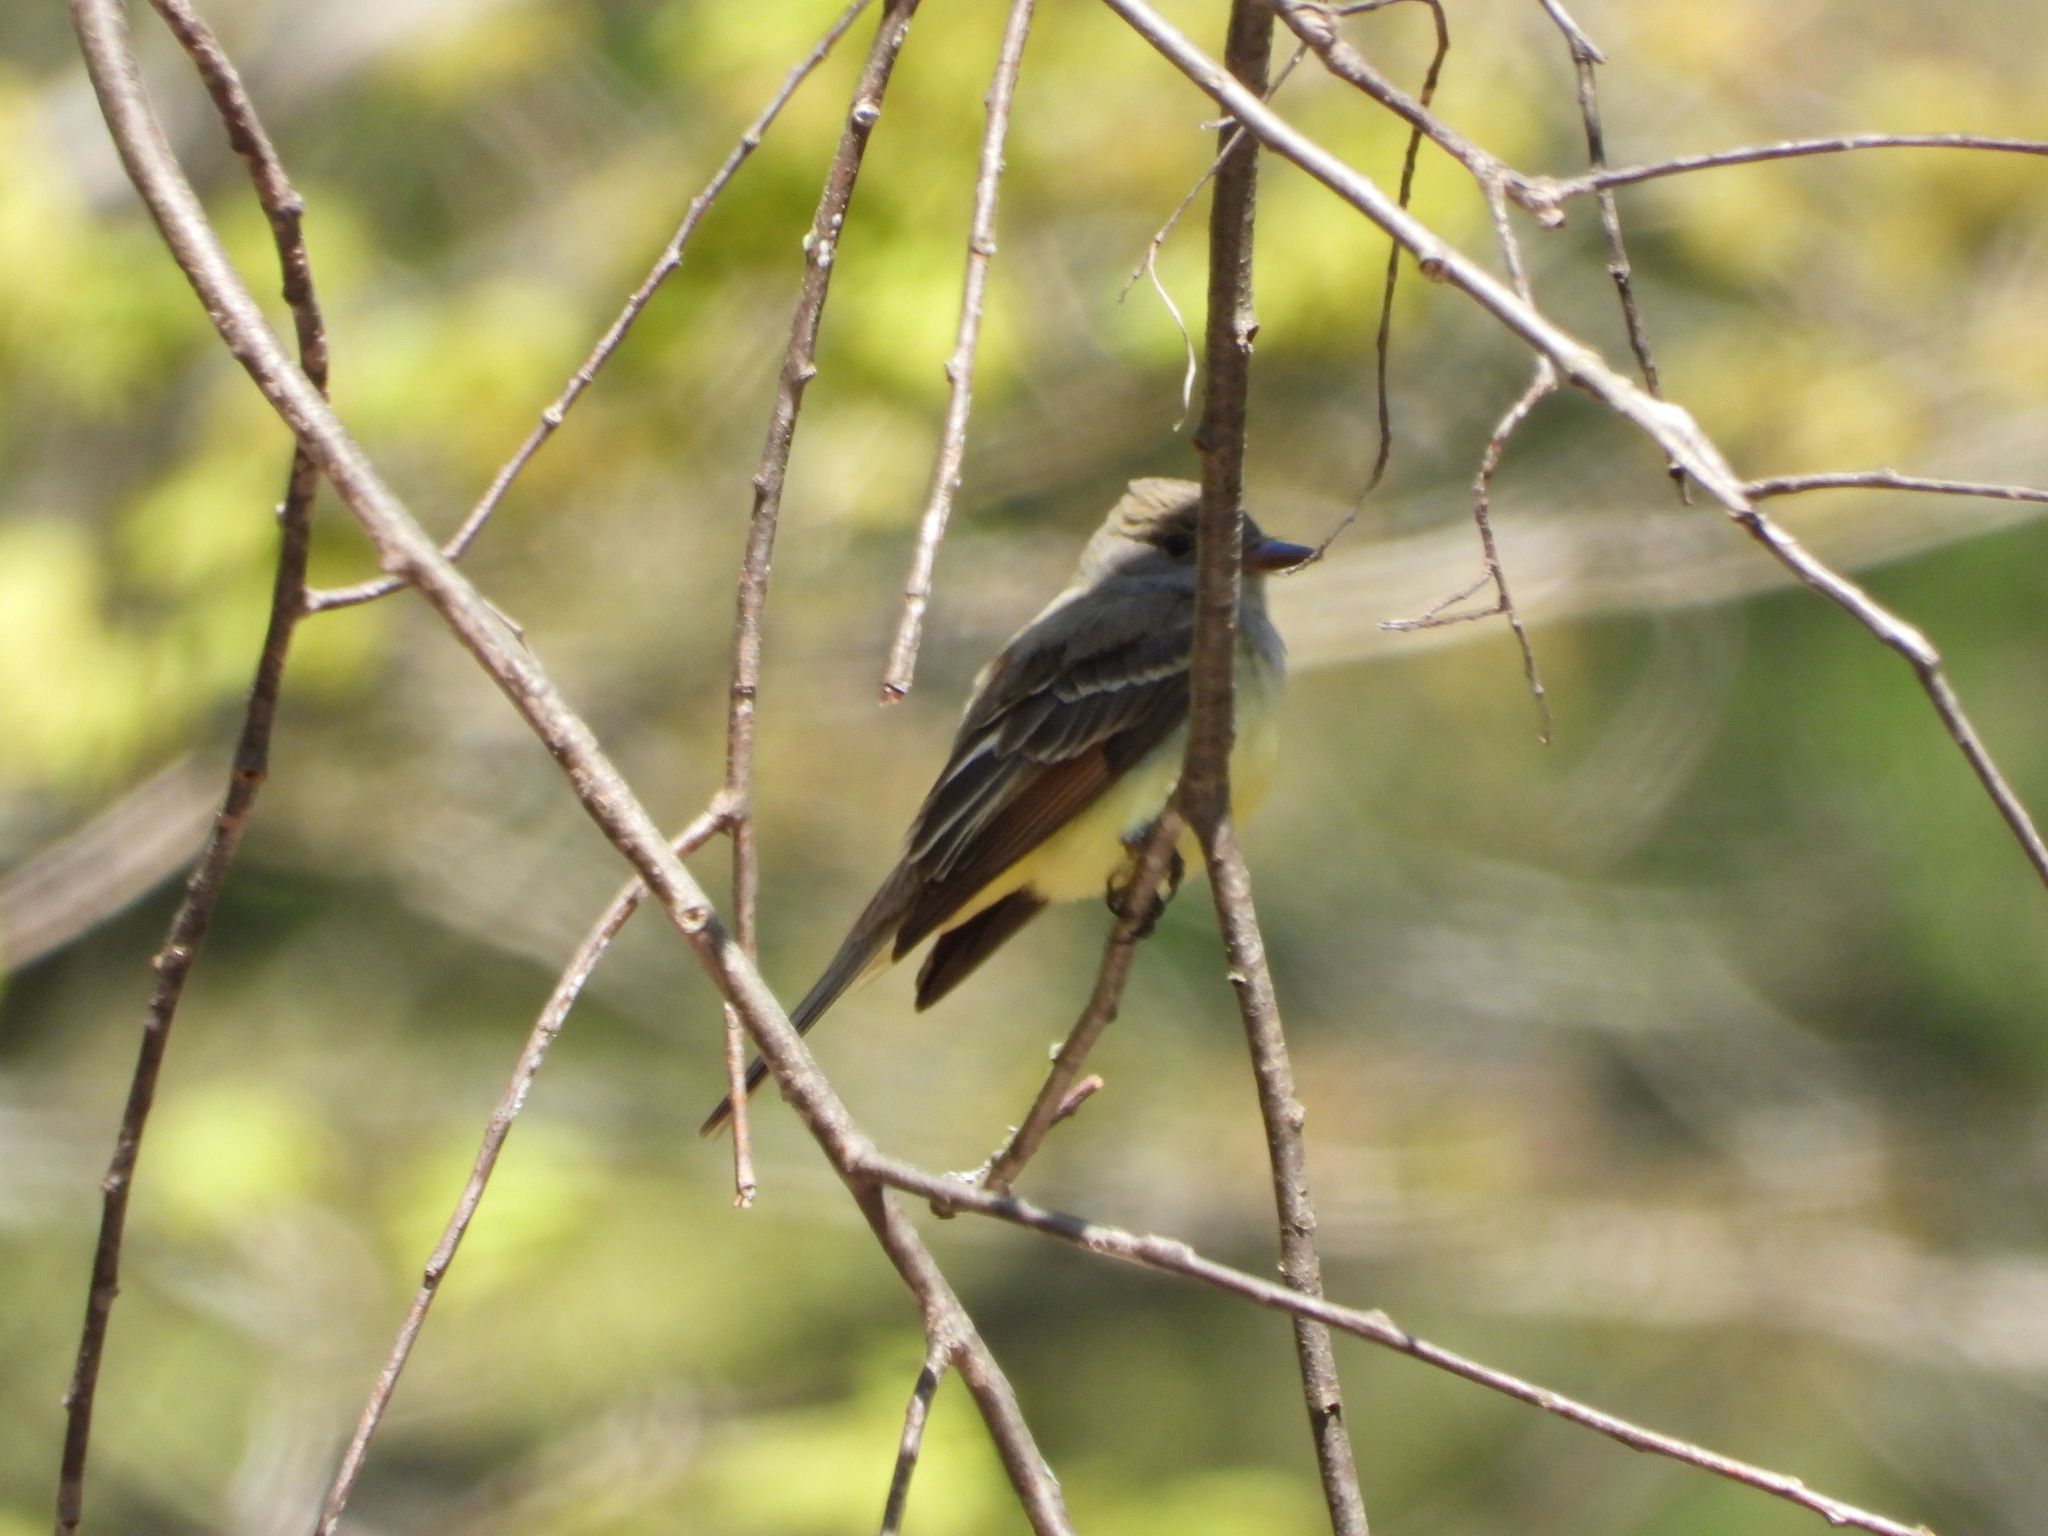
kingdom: Animalia
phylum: Chordata
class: Aves
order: Passeriformes
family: Tyrannidae
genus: Myiarchus
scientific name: Myiarchus crinitus
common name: Great crested flycatcher
